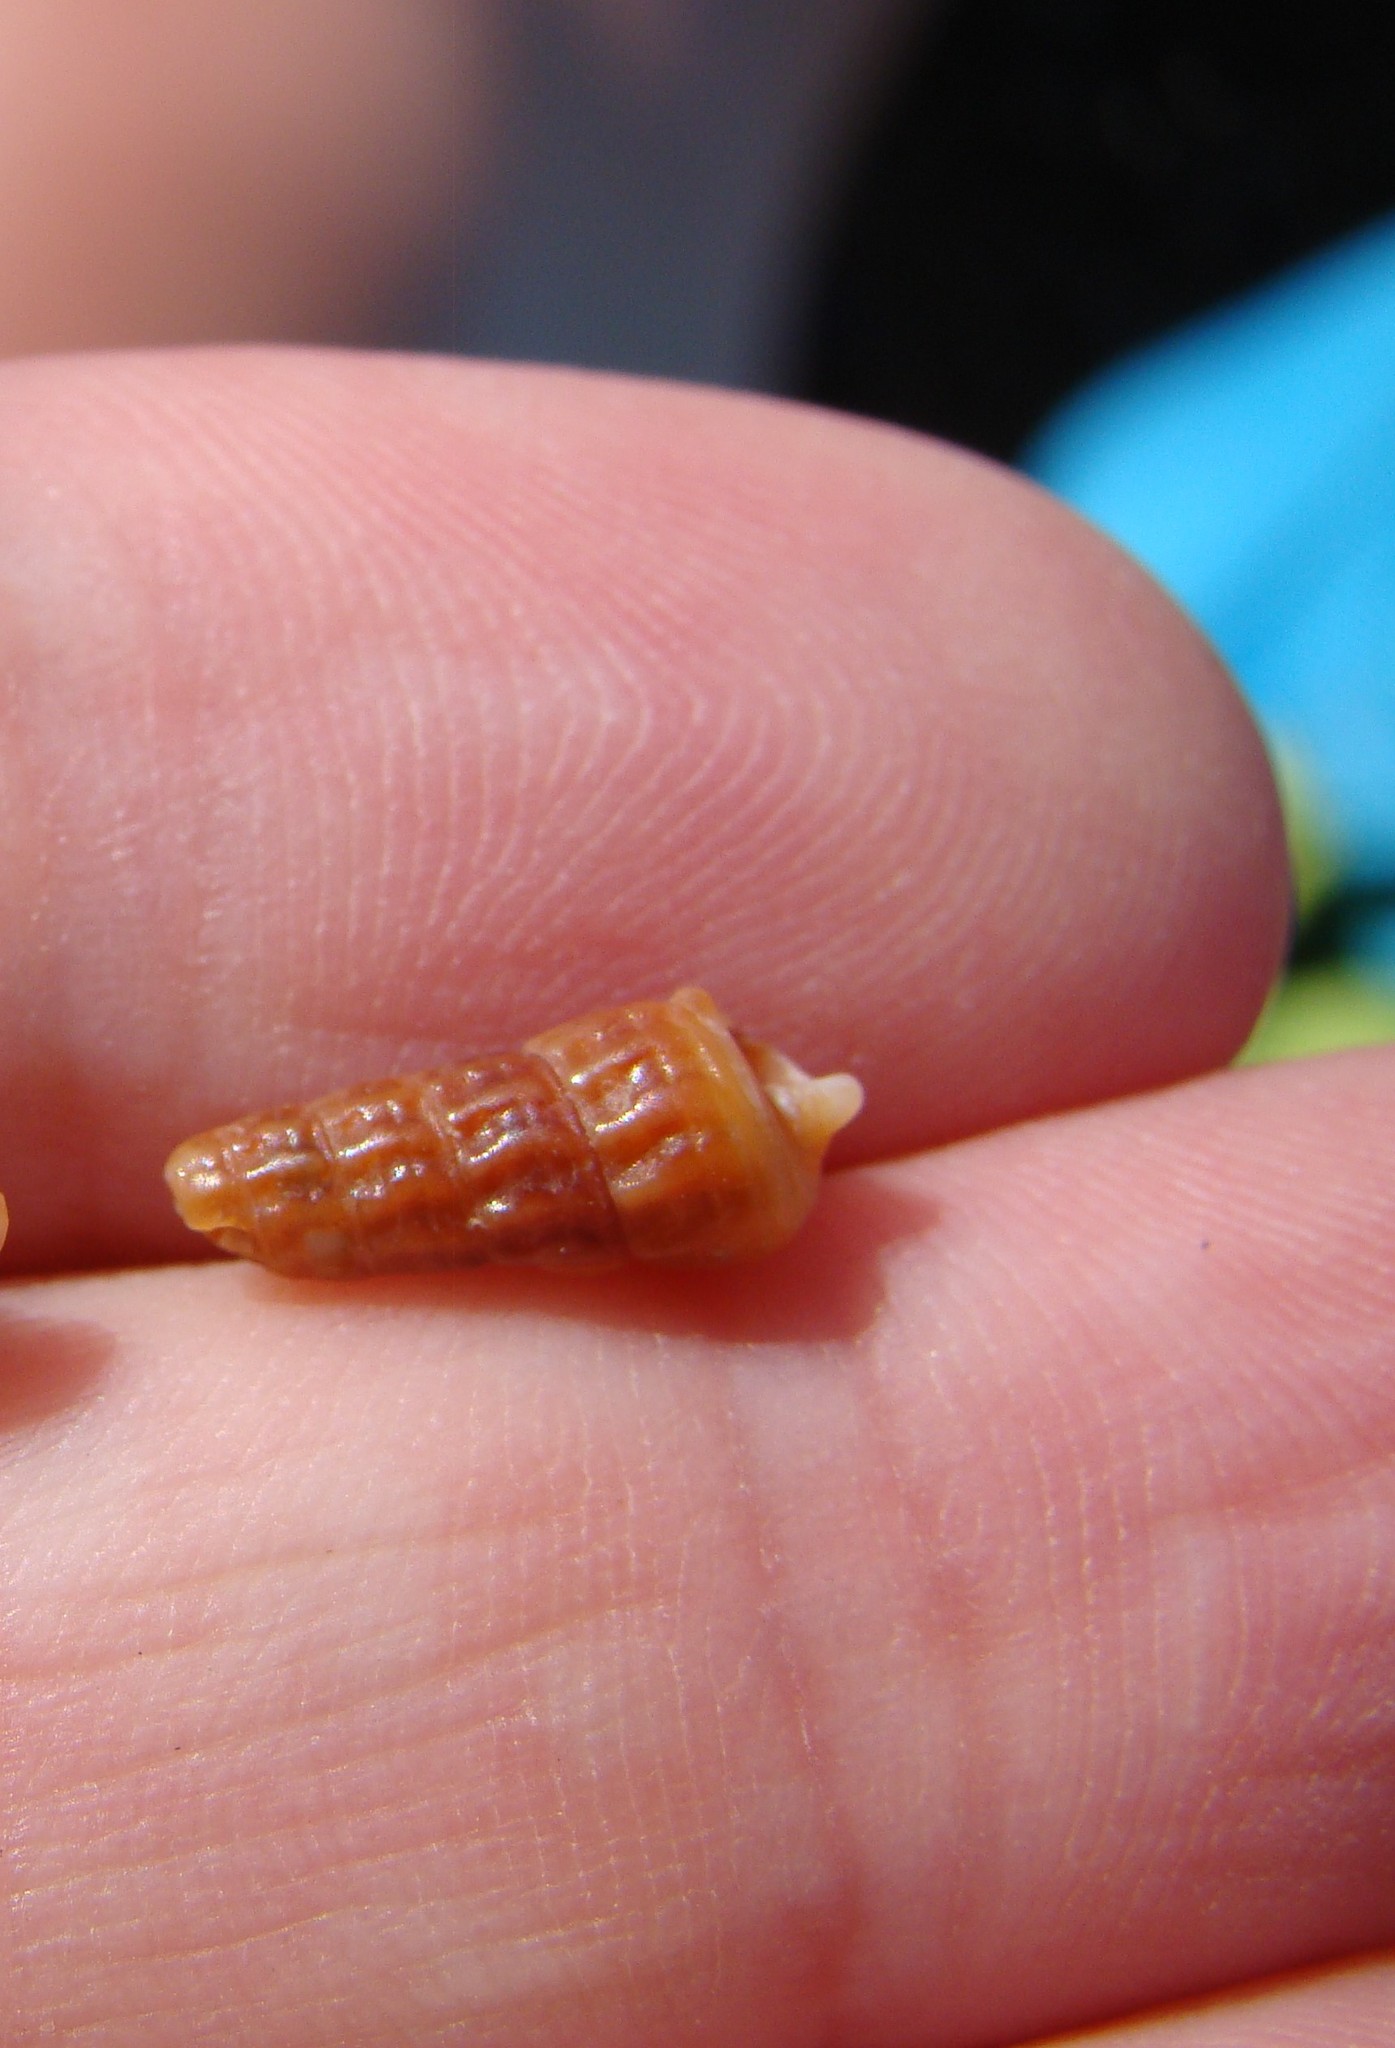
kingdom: Animalia
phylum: Mollusca
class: Gastropoda
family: Batillariidae
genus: Zeacumantus
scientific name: Zeacumantus subcarinatus
